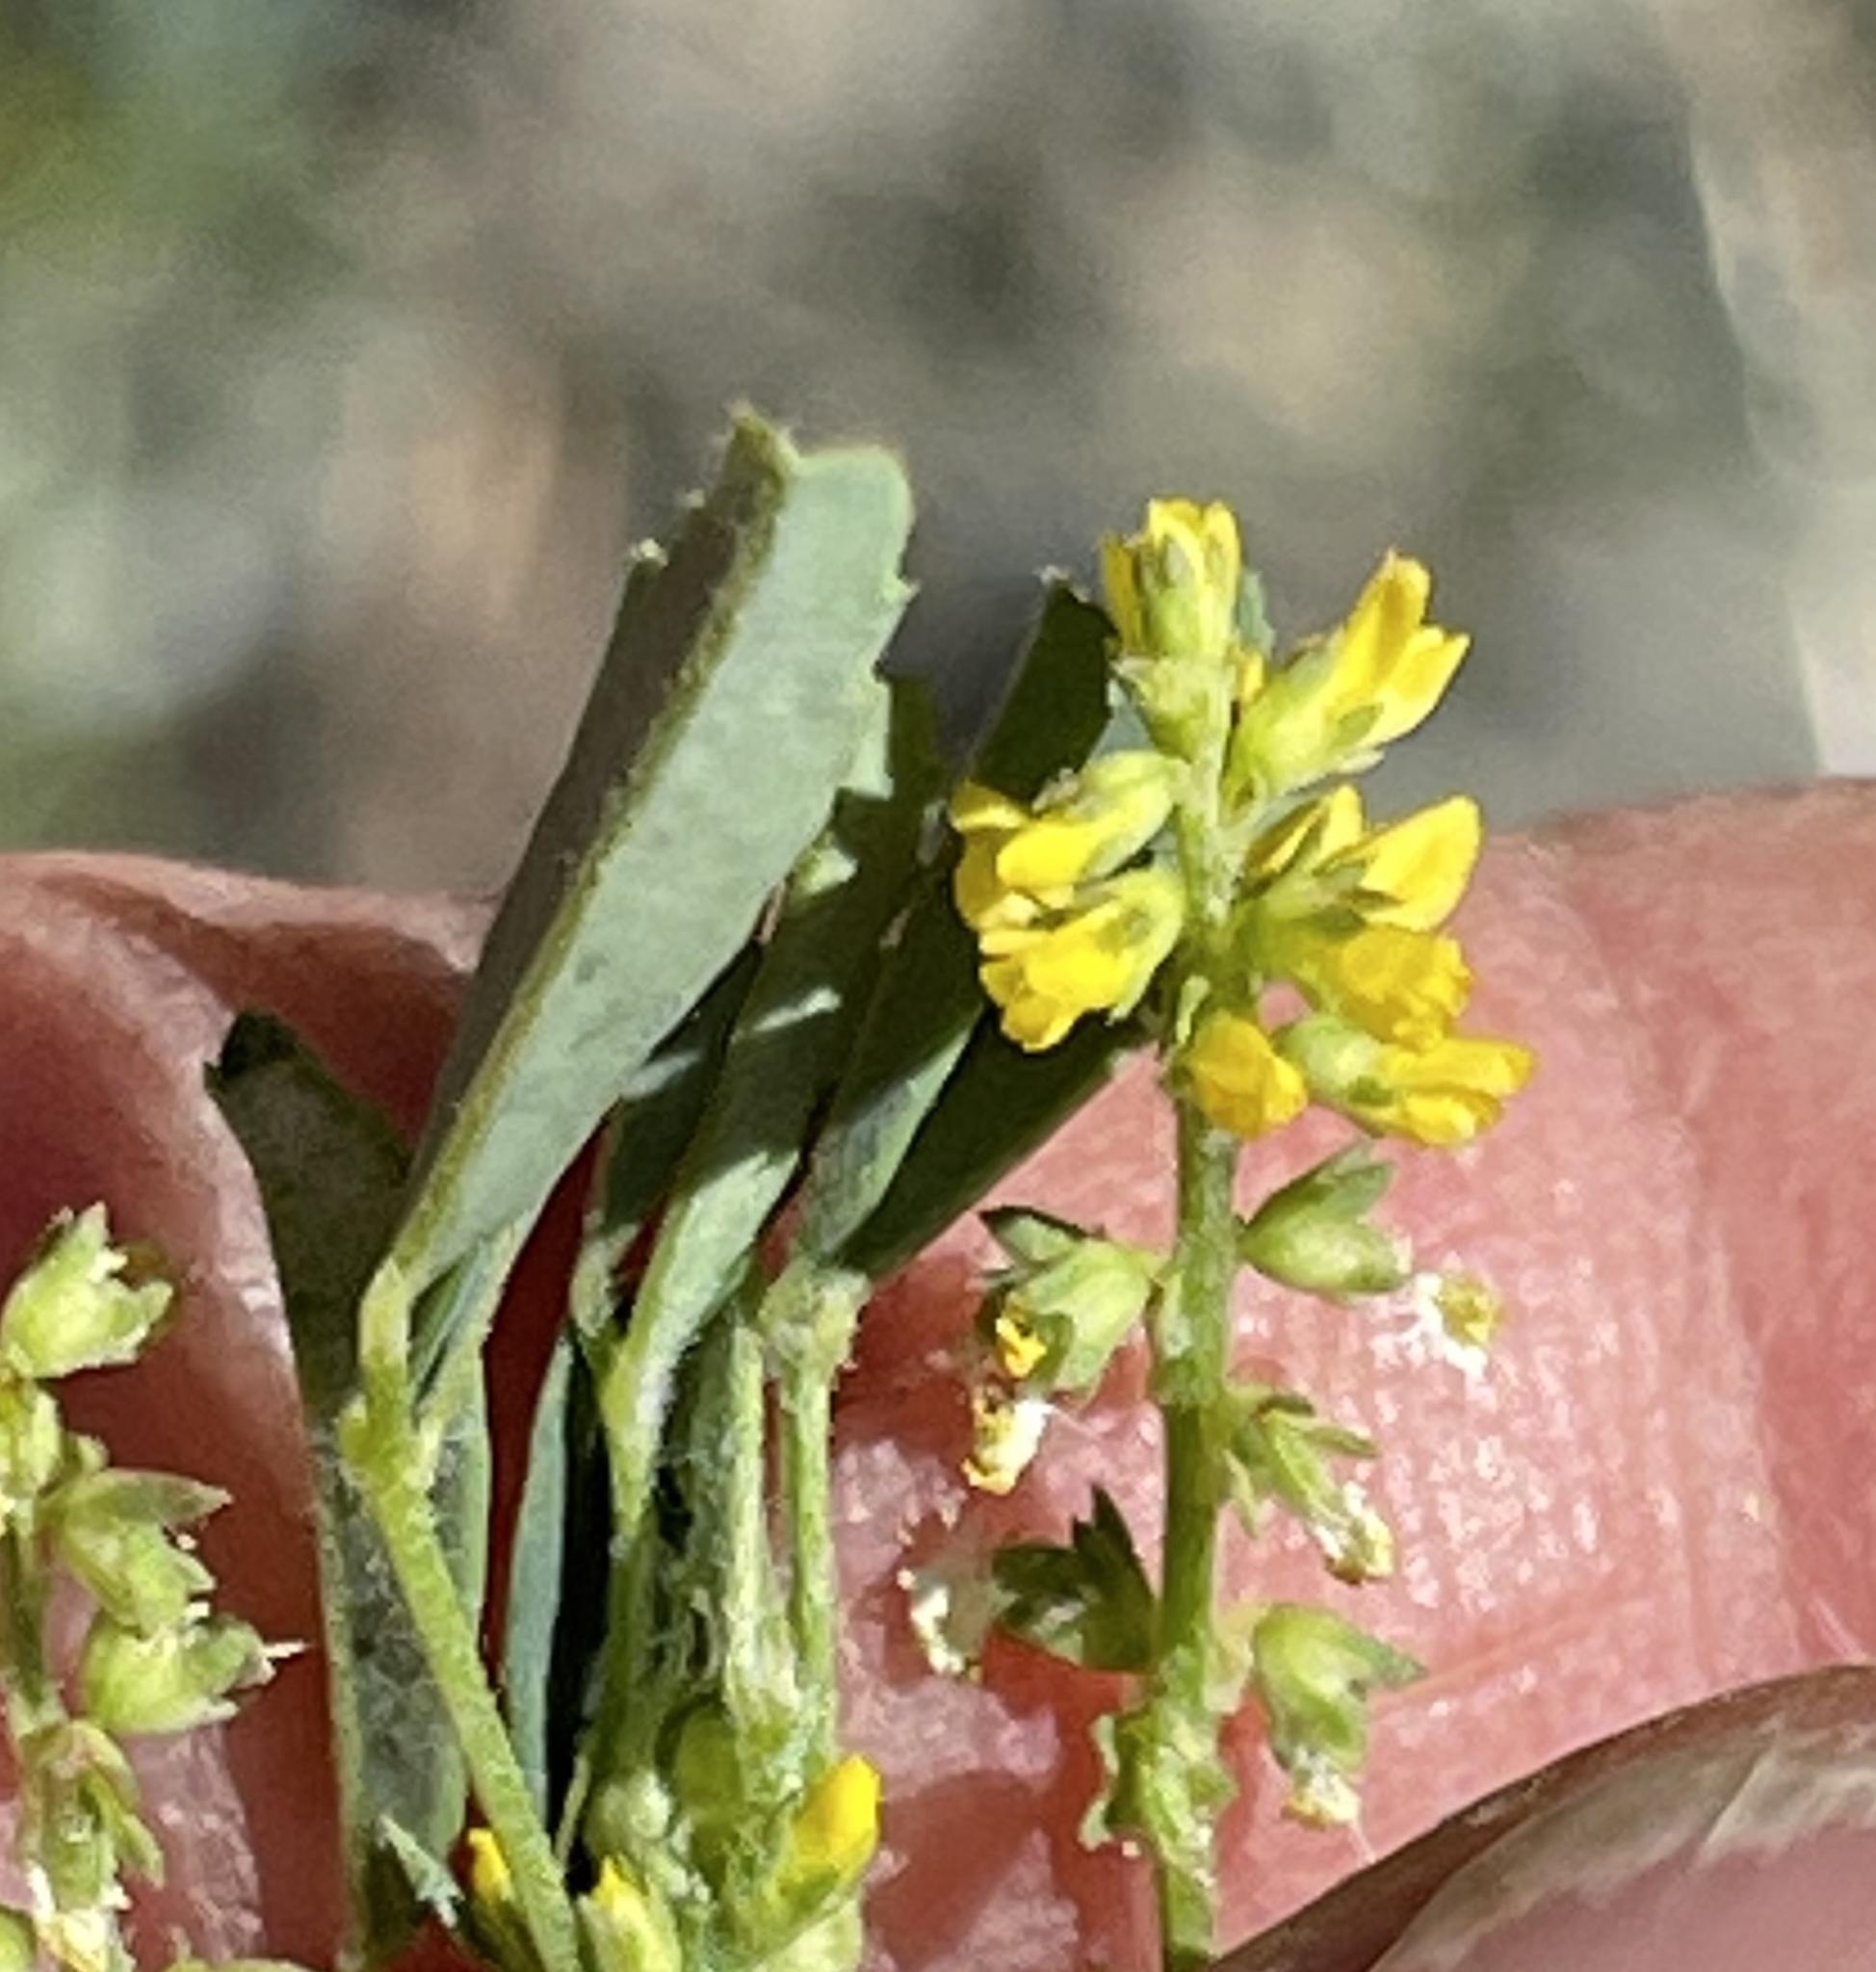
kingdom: Plantae
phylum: Tracheophyta
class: Magnoliopsida
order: Fabales
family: Fabaceae
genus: Melilotus
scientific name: Melilotus indicus
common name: Small melilot
